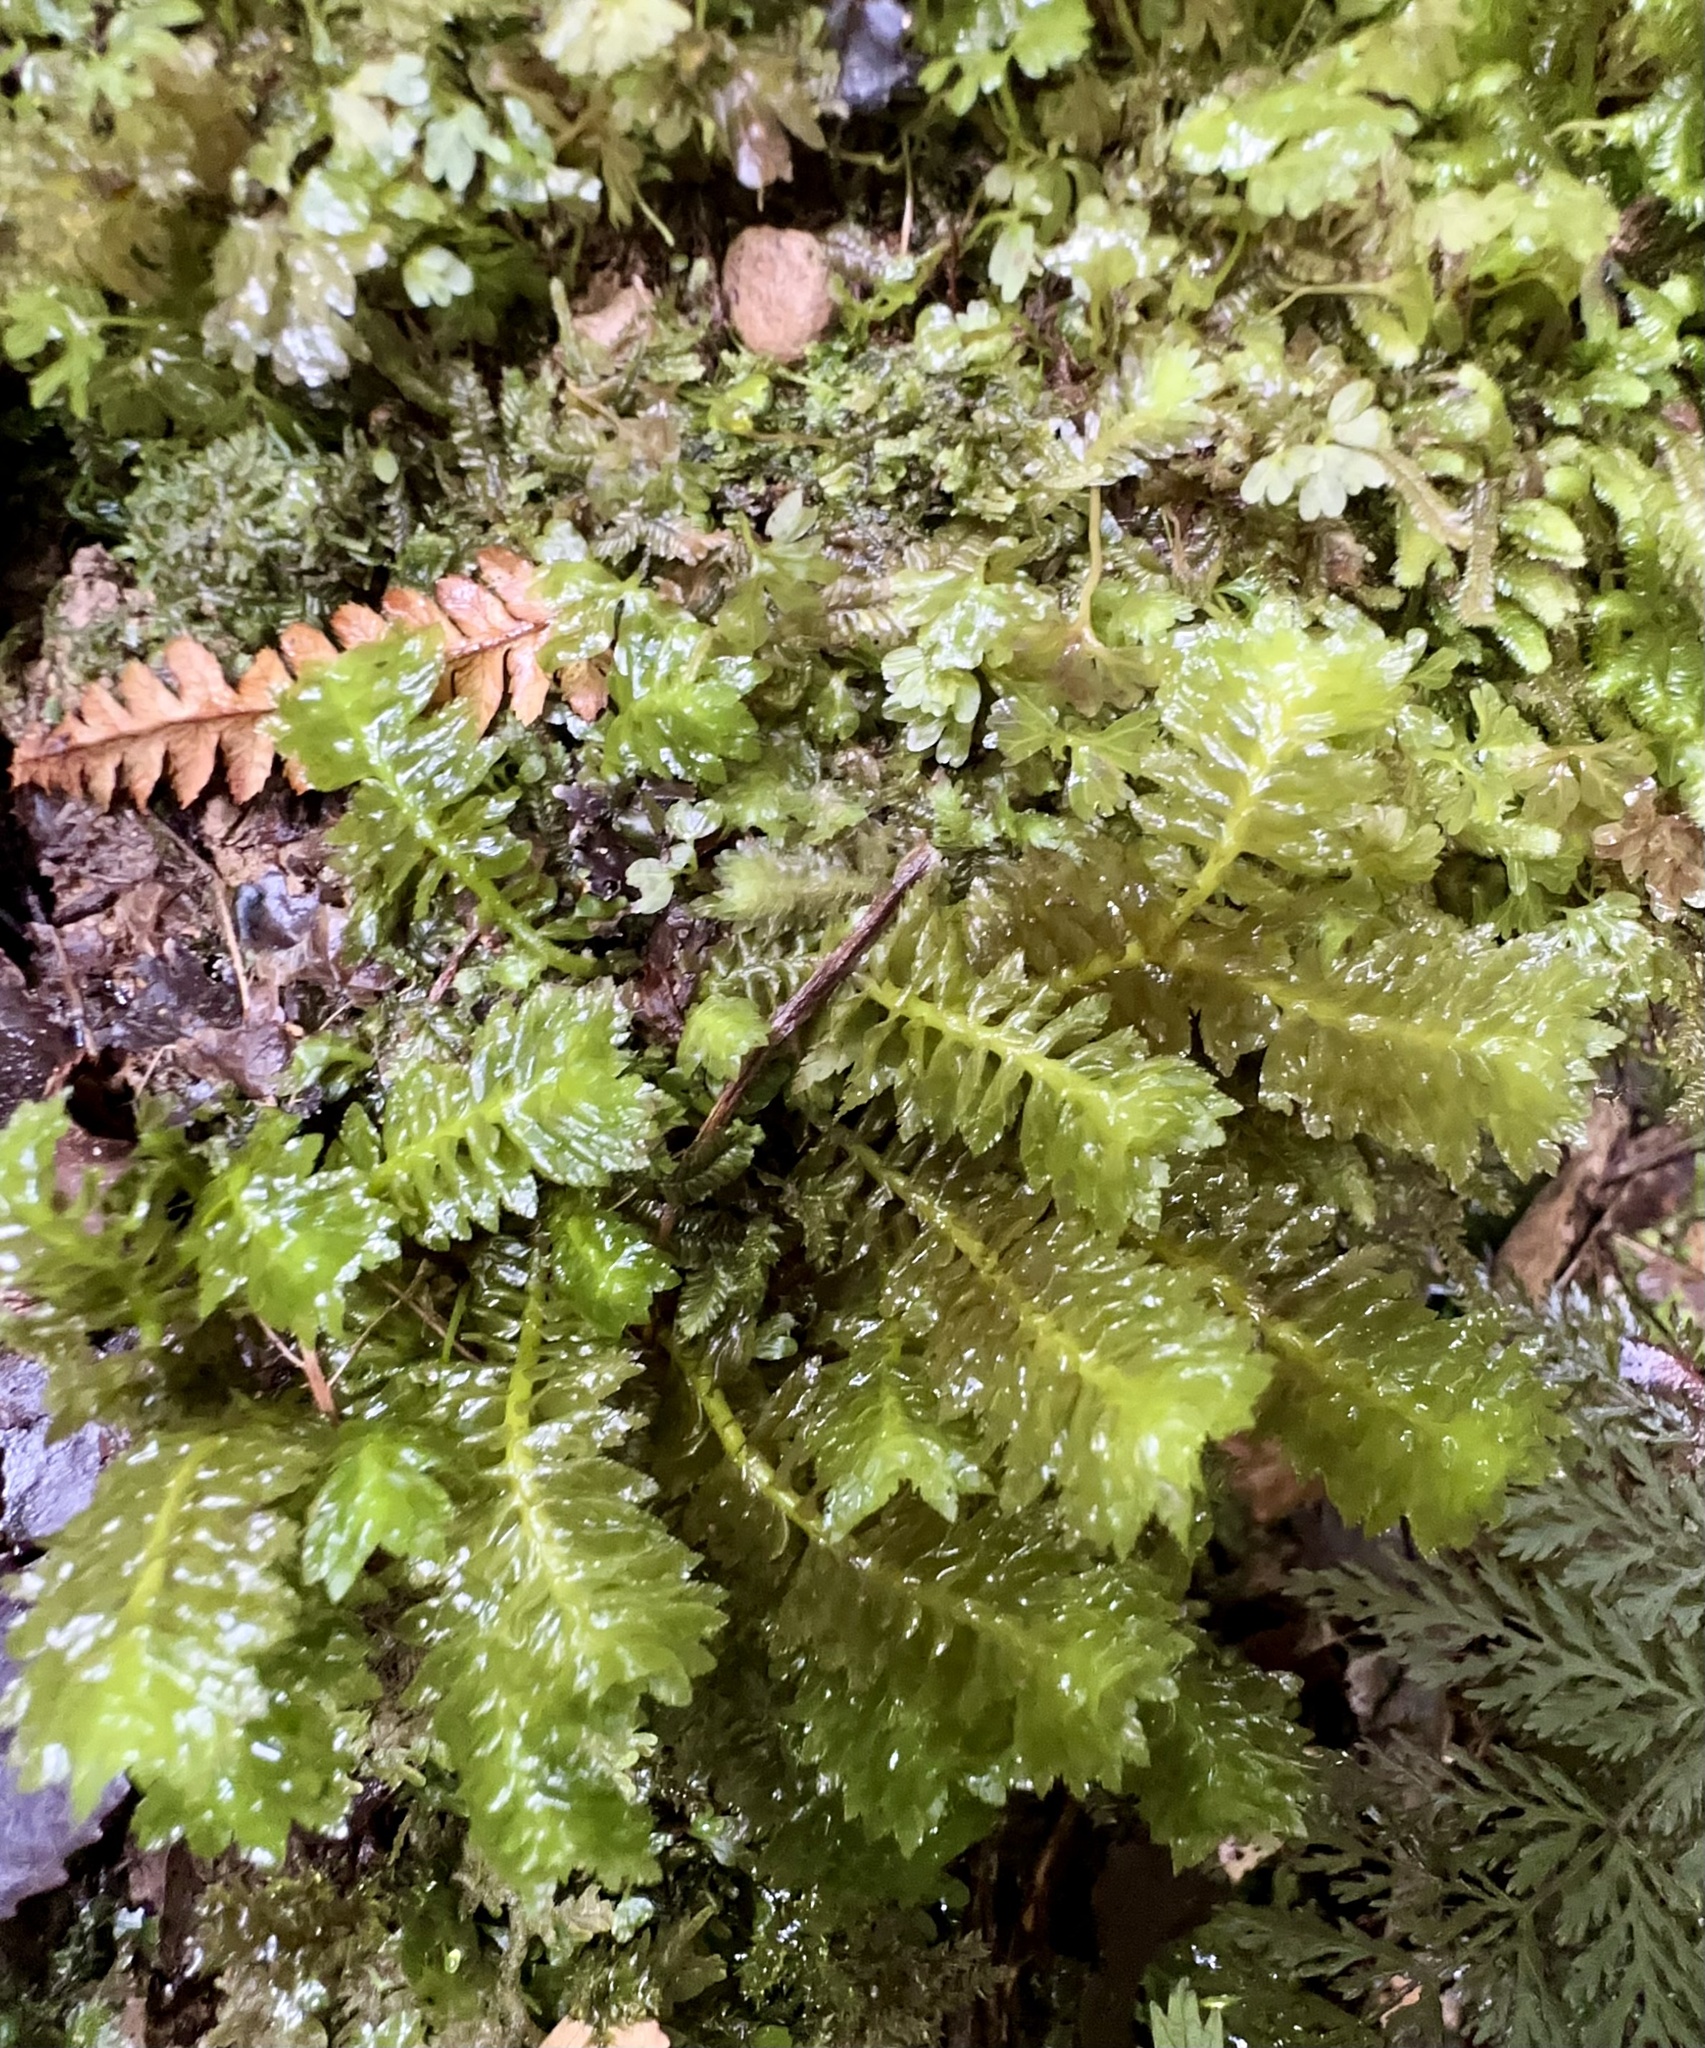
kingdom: Plantae
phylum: Marchantiophyta
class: Jungermanniopsida
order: Jungermanniales
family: Schistochilaceae
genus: Schistochila
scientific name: Schistochila appendiculata
